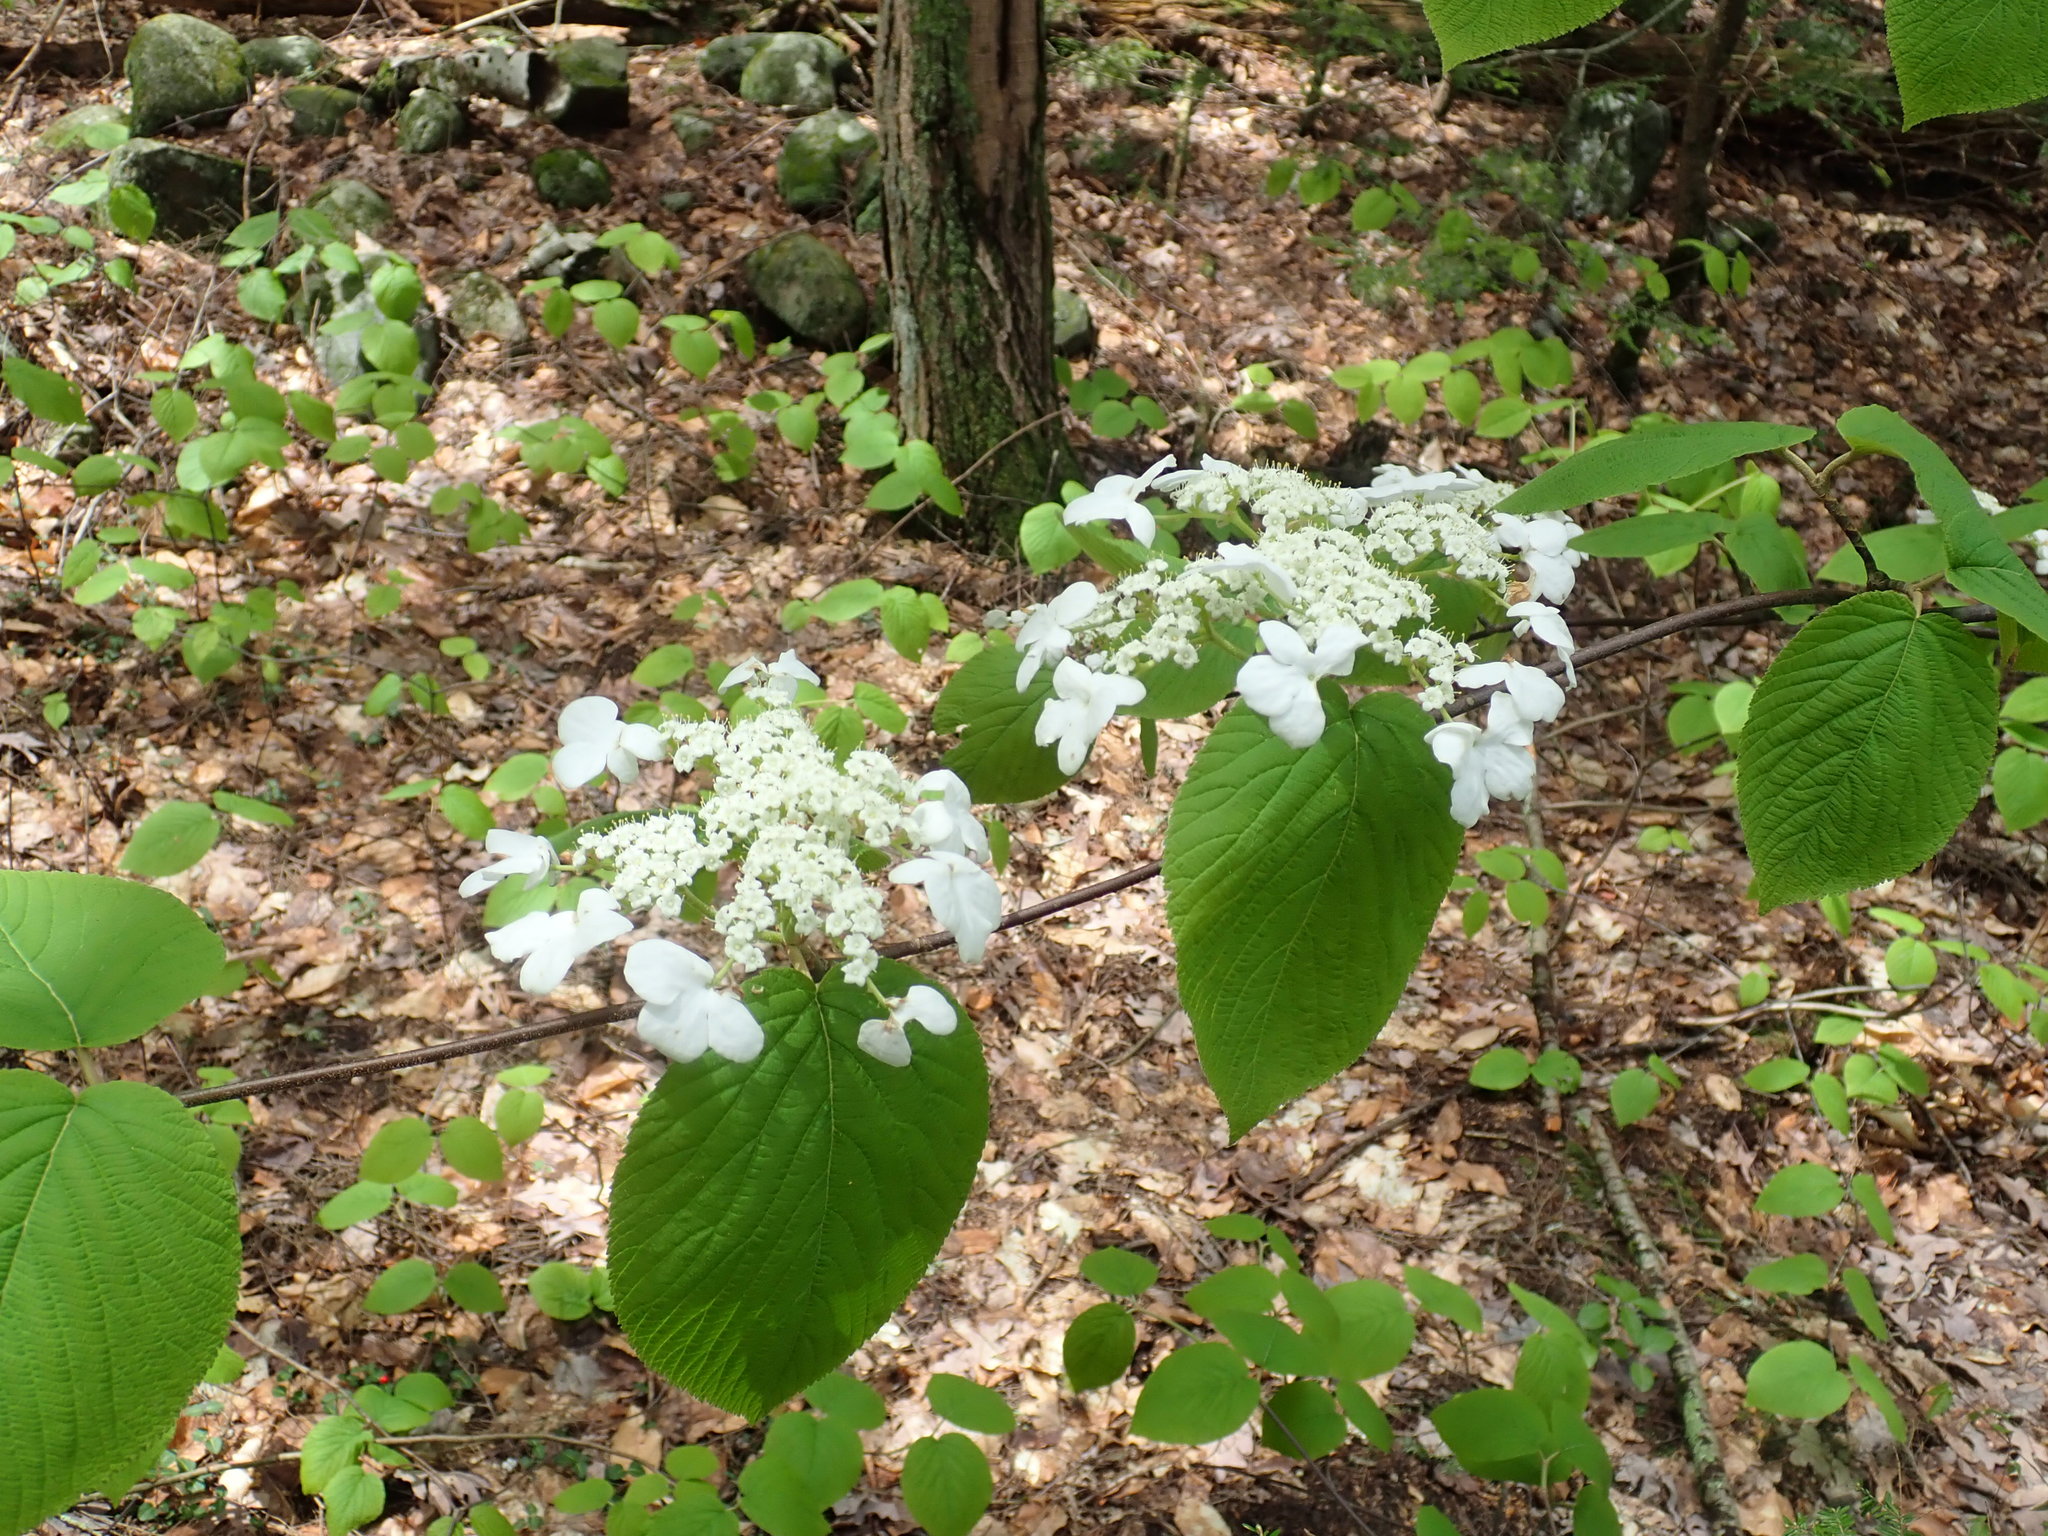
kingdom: Plantae
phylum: Tracheophyta
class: Magnoliopsida
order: Dipsacales
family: Viburnaceae
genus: Viburnum
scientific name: Viburnum lantanoides
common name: Hobblebush
